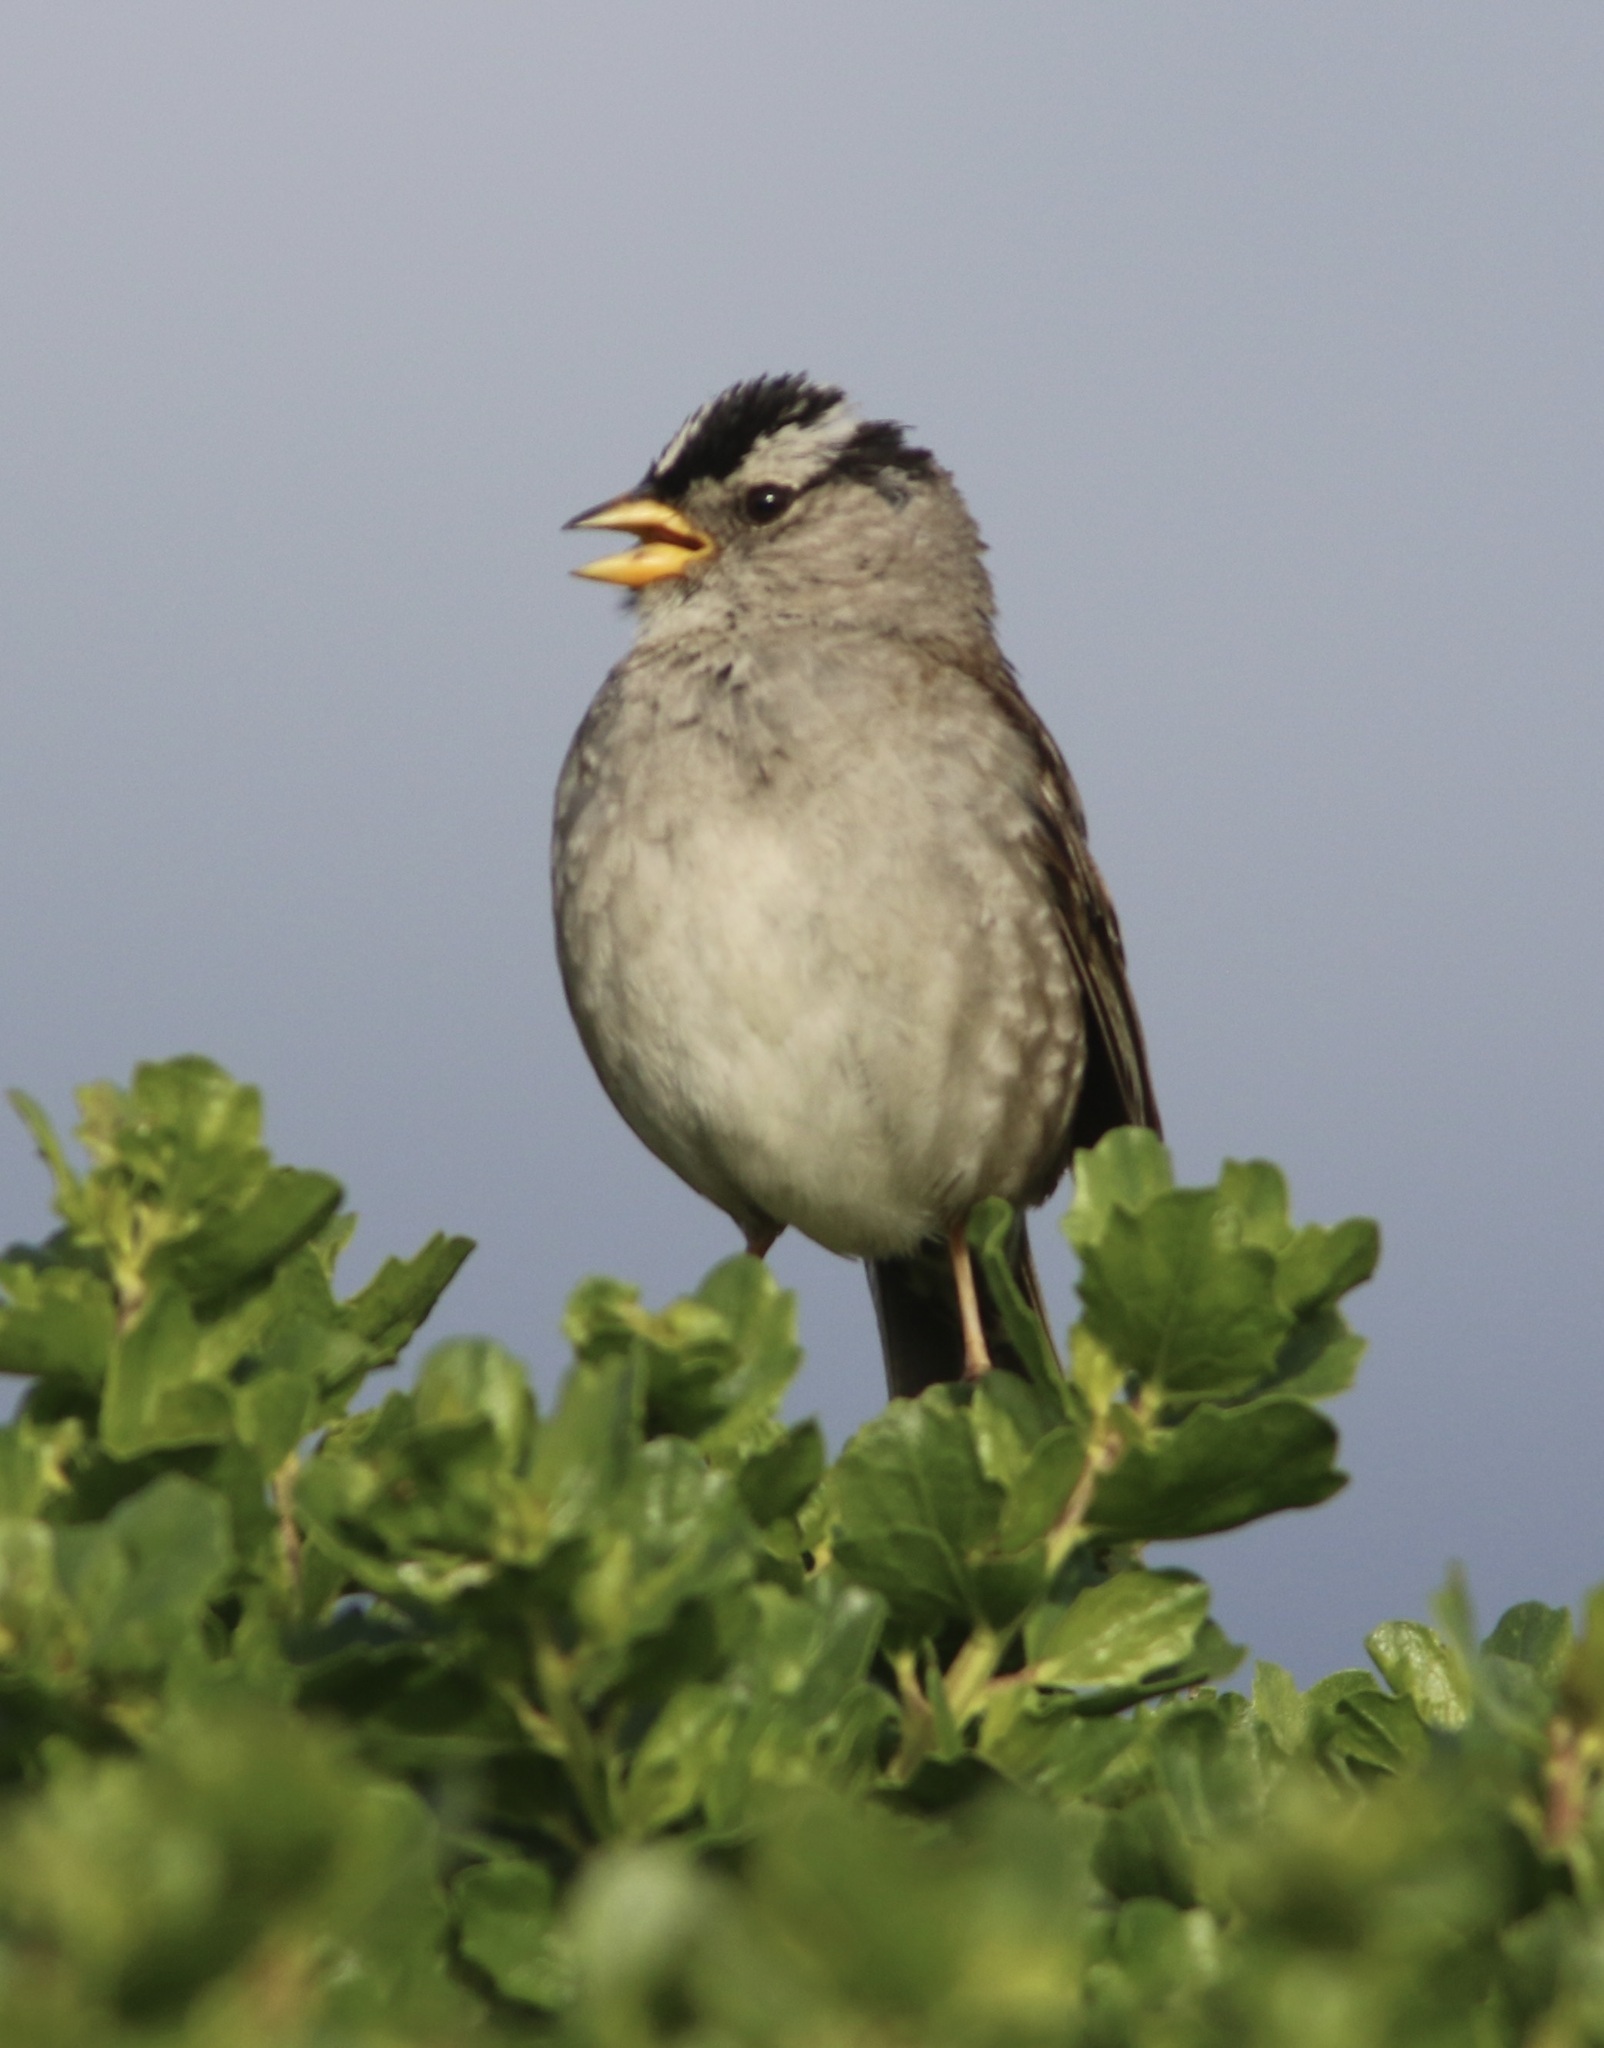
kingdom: Animalia
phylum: Chordata
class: Aves
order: Passeriformes
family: Passerellidae
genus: Zonotrichia
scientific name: Zonotrichia leucophrys
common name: White-crowned sparrow
